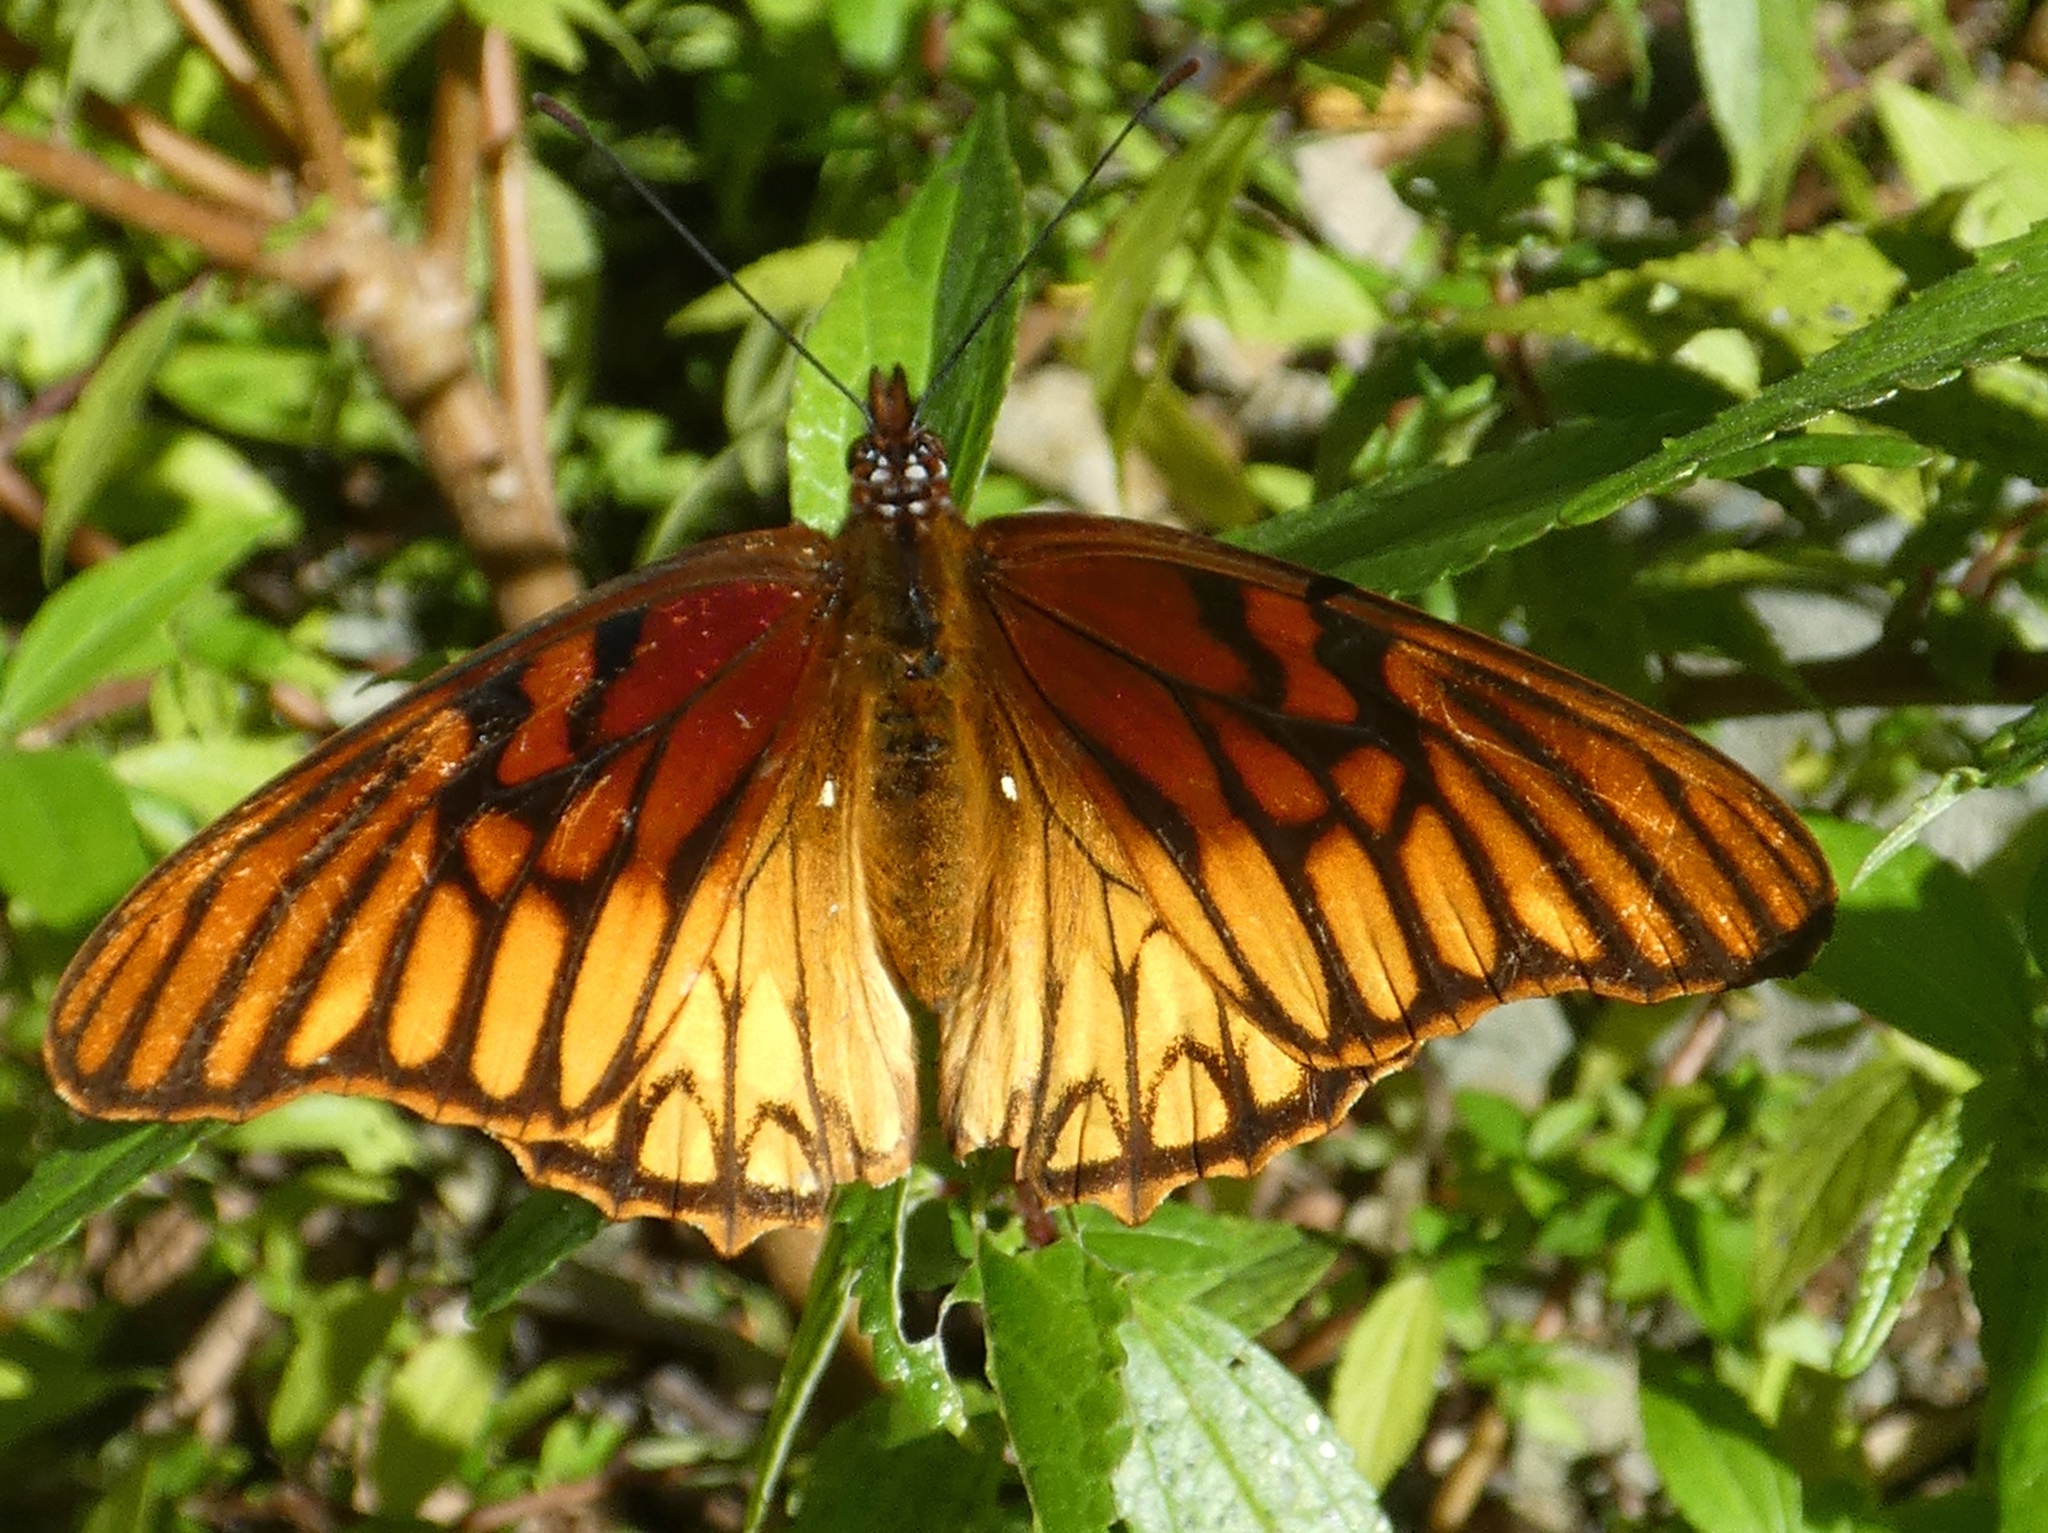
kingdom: Animalia
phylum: Arthropoda
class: Insecta
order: Lepidoptera
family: Nymphalidae
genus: Dione
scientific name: Dione moneta
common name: Mexican silverspot
